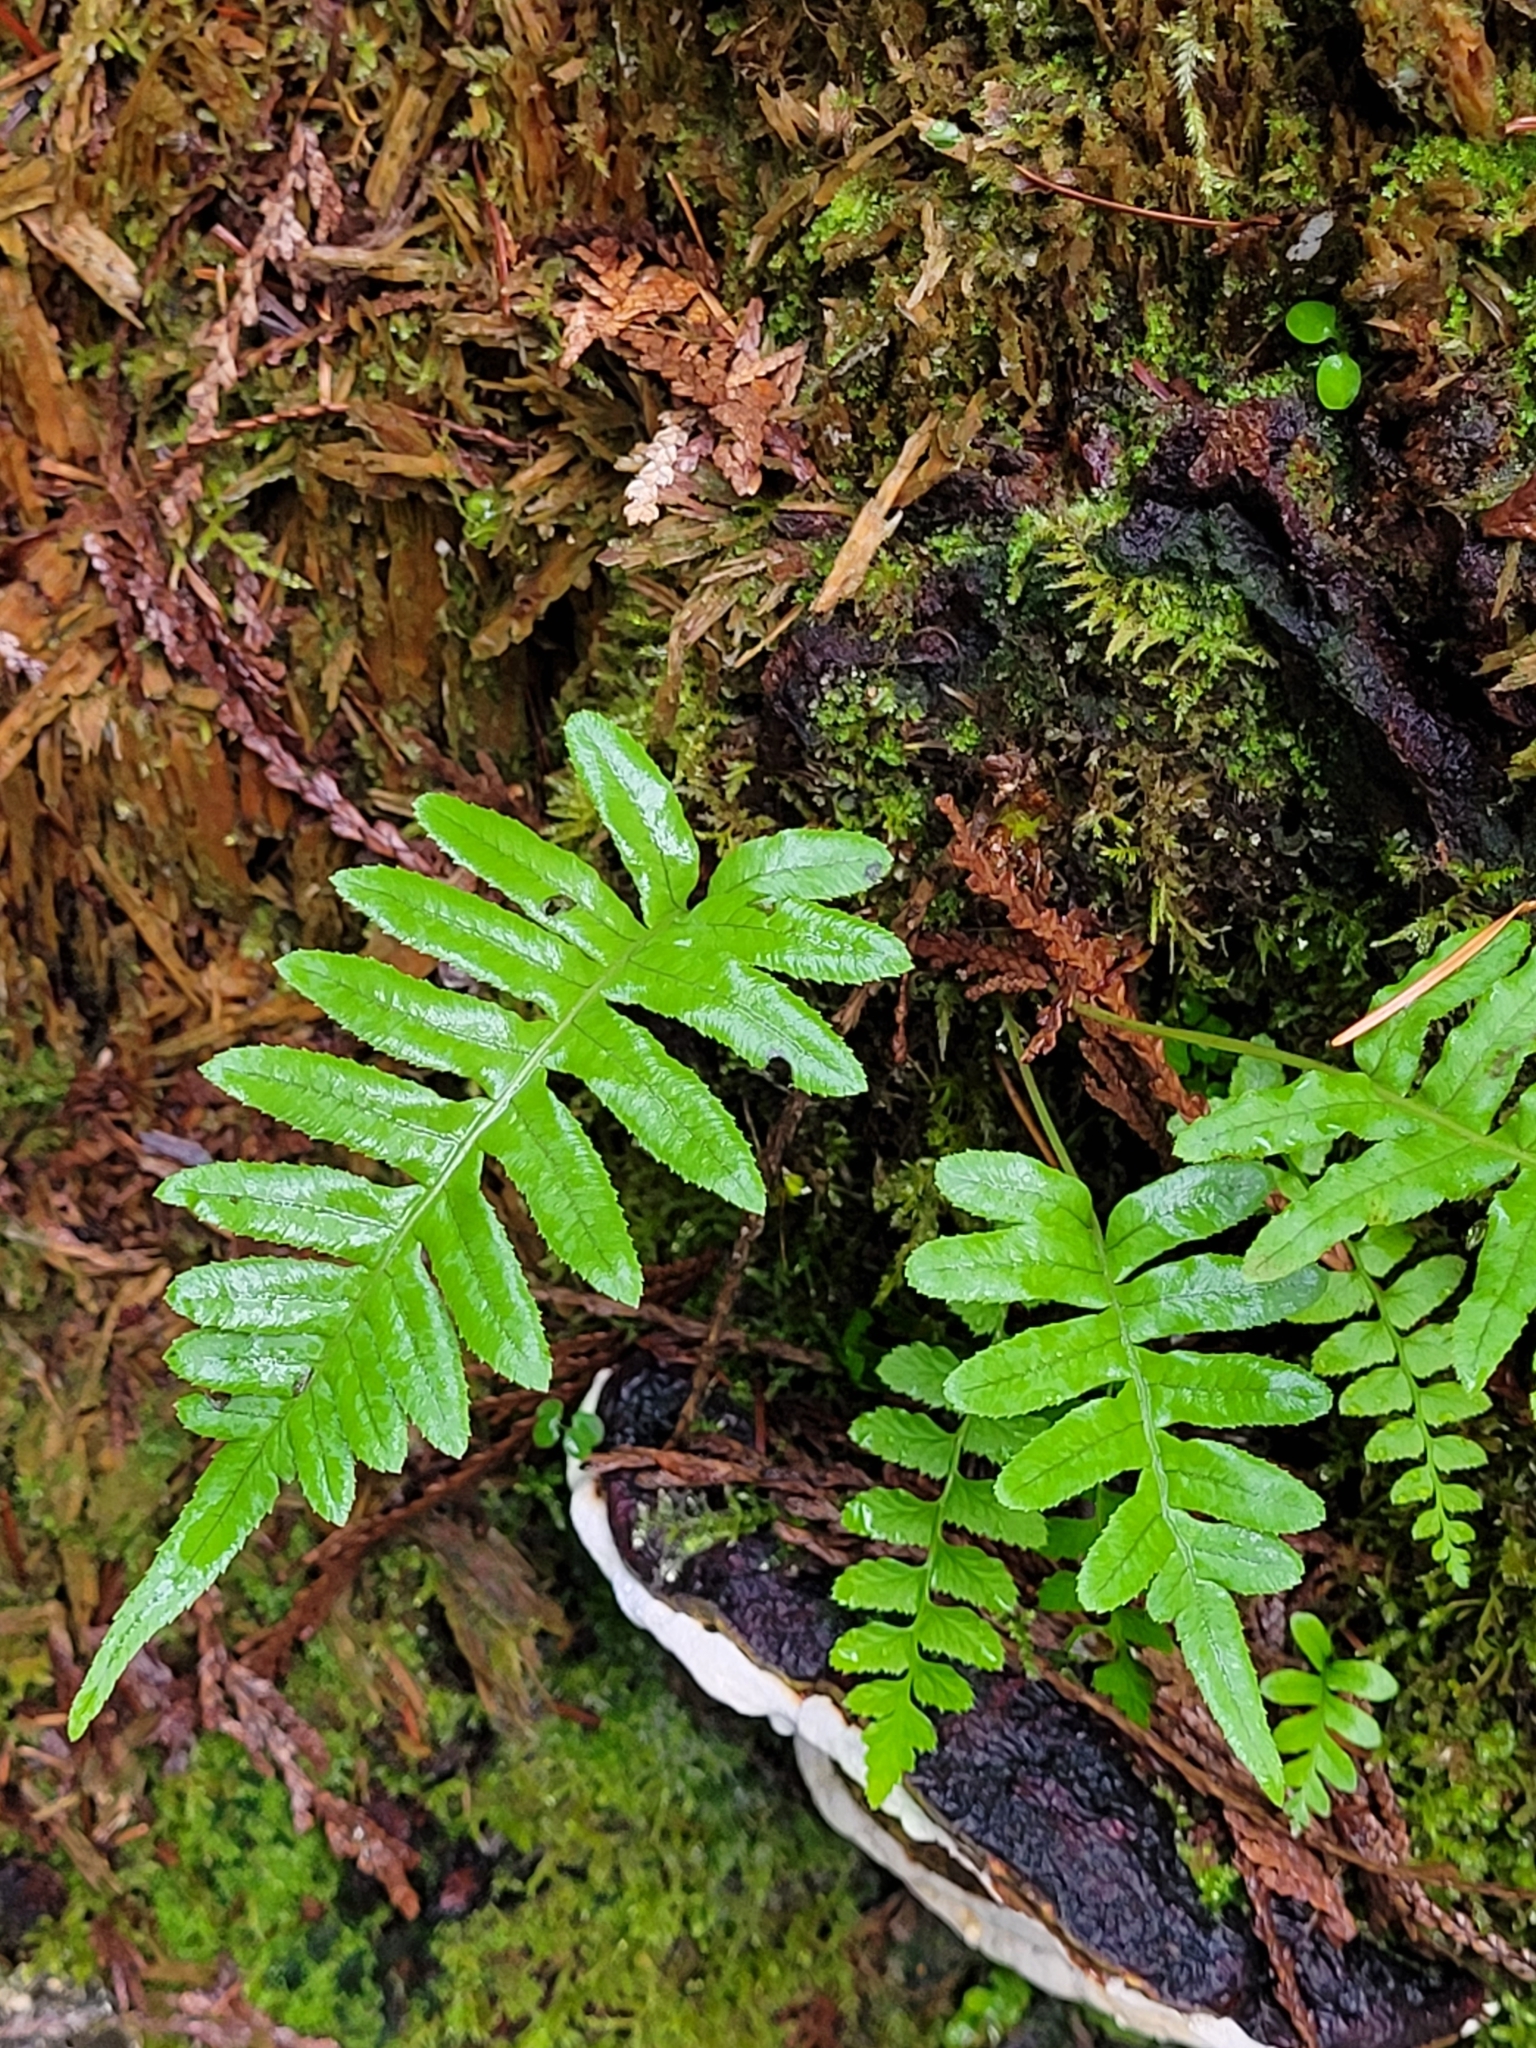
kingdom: Plantae
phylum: Tracheophyta
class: Polypodiopsida
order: Polypodiales
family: Polypodiaceae
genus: Polypodium
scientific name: Polypodium glycyrrhiza
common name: Licorice fern
